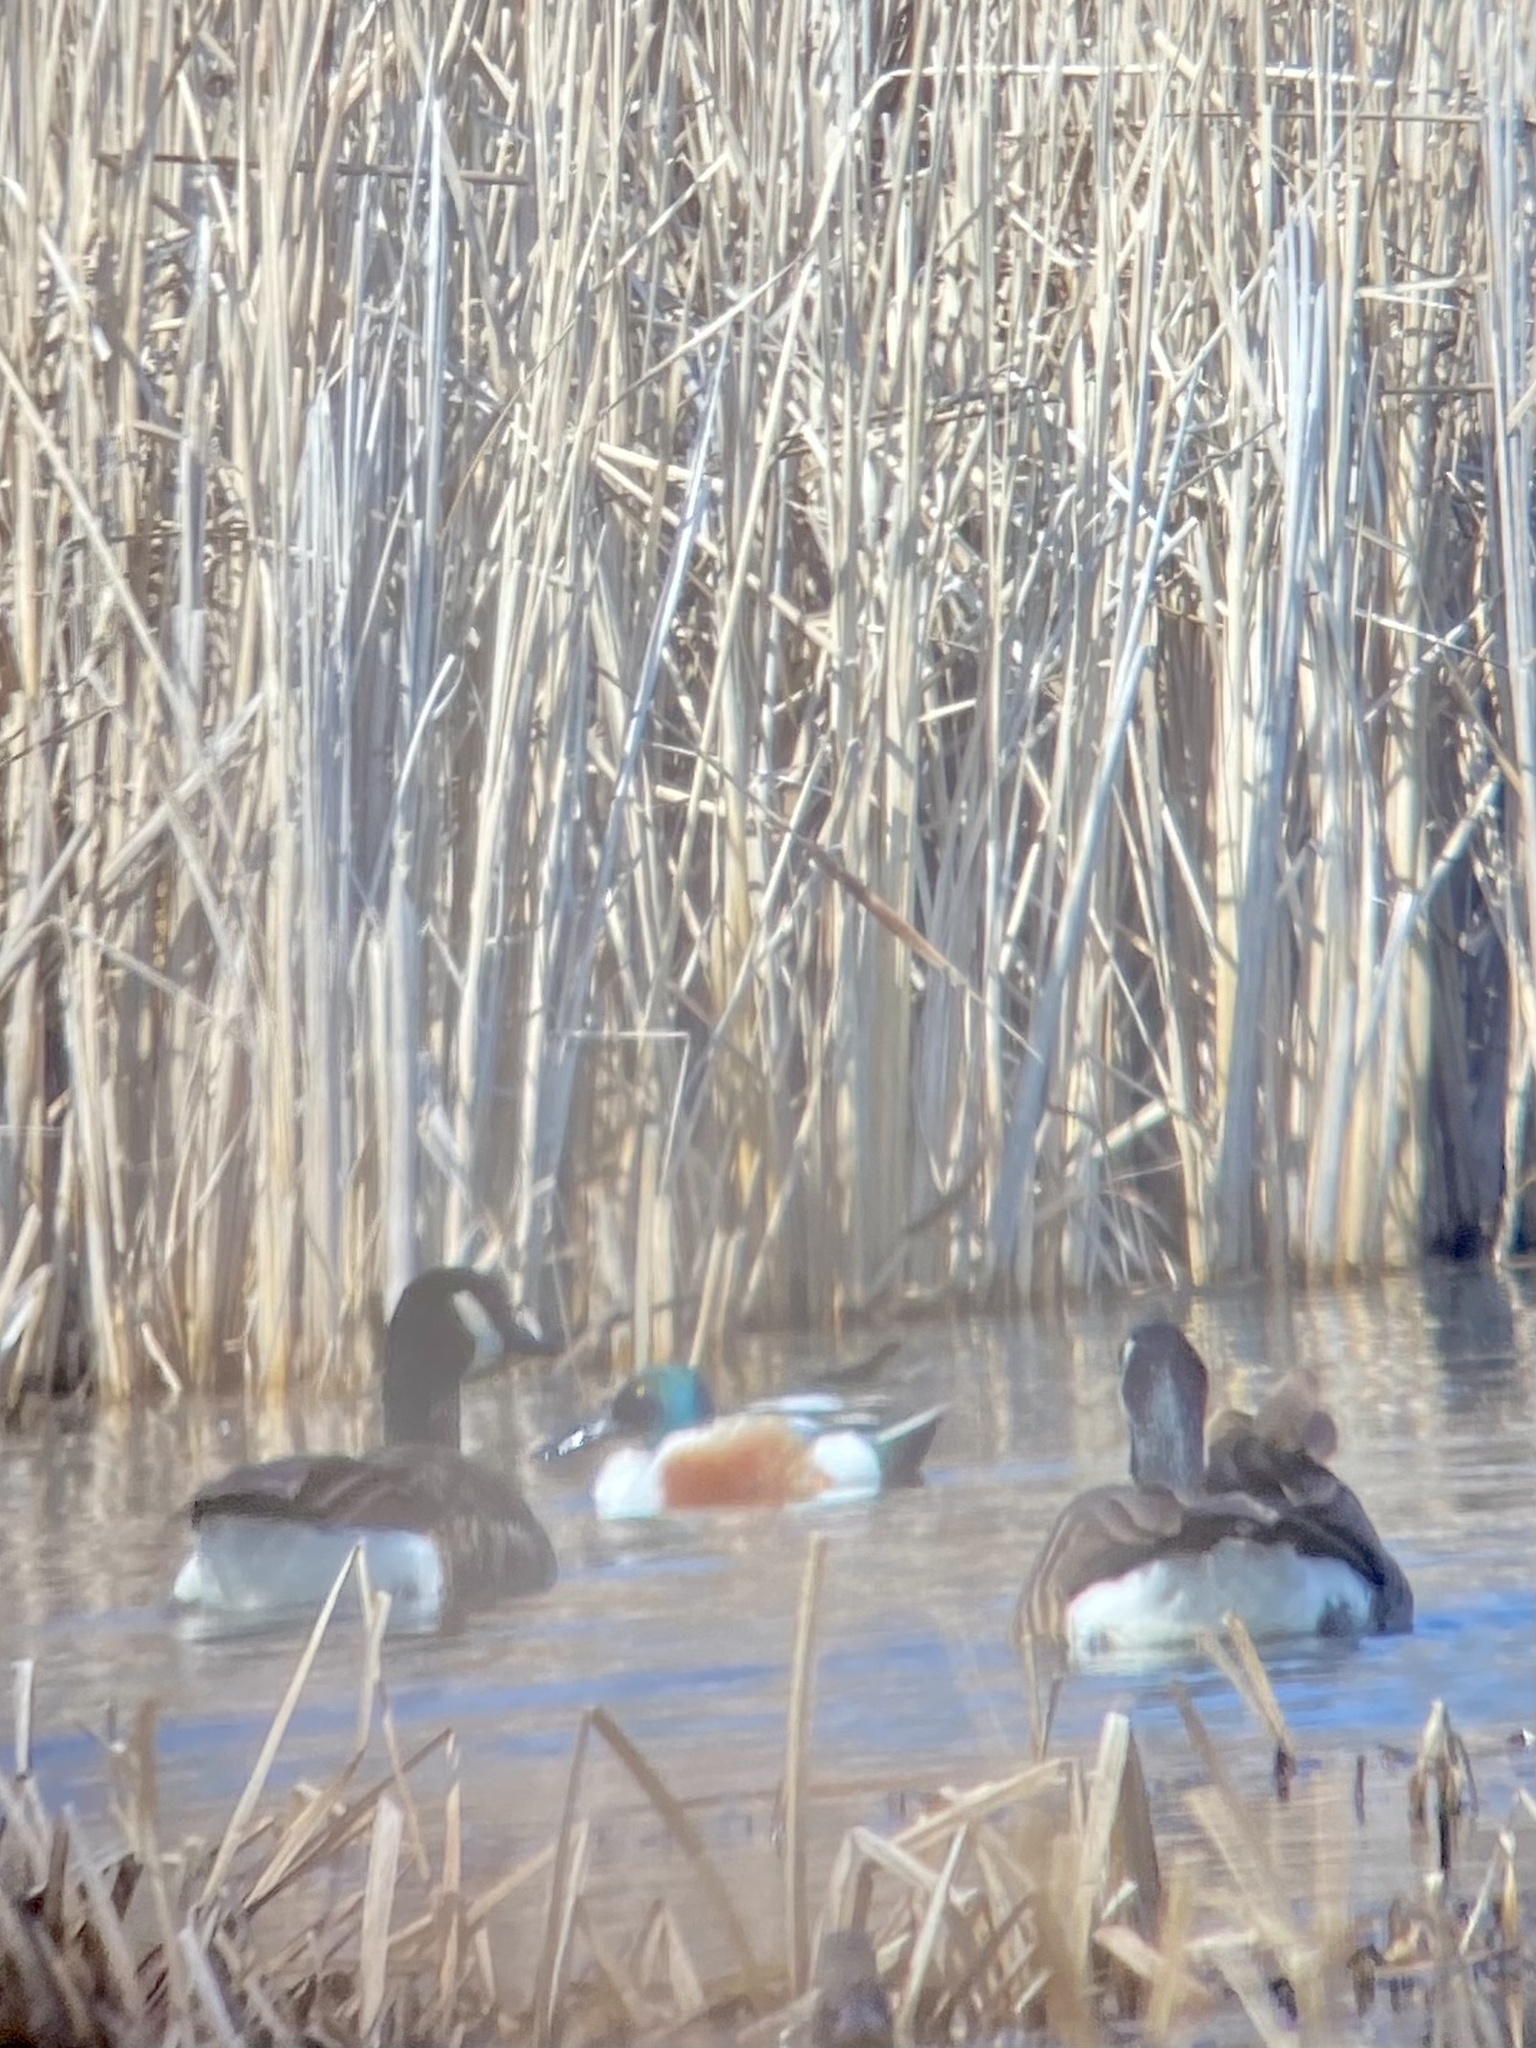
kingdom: Animalia
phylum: Chordata
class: Aves
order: Anseriformes
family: Anatidae
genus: Spatula
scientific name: Spatula clypeata
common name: Northern shoveler
